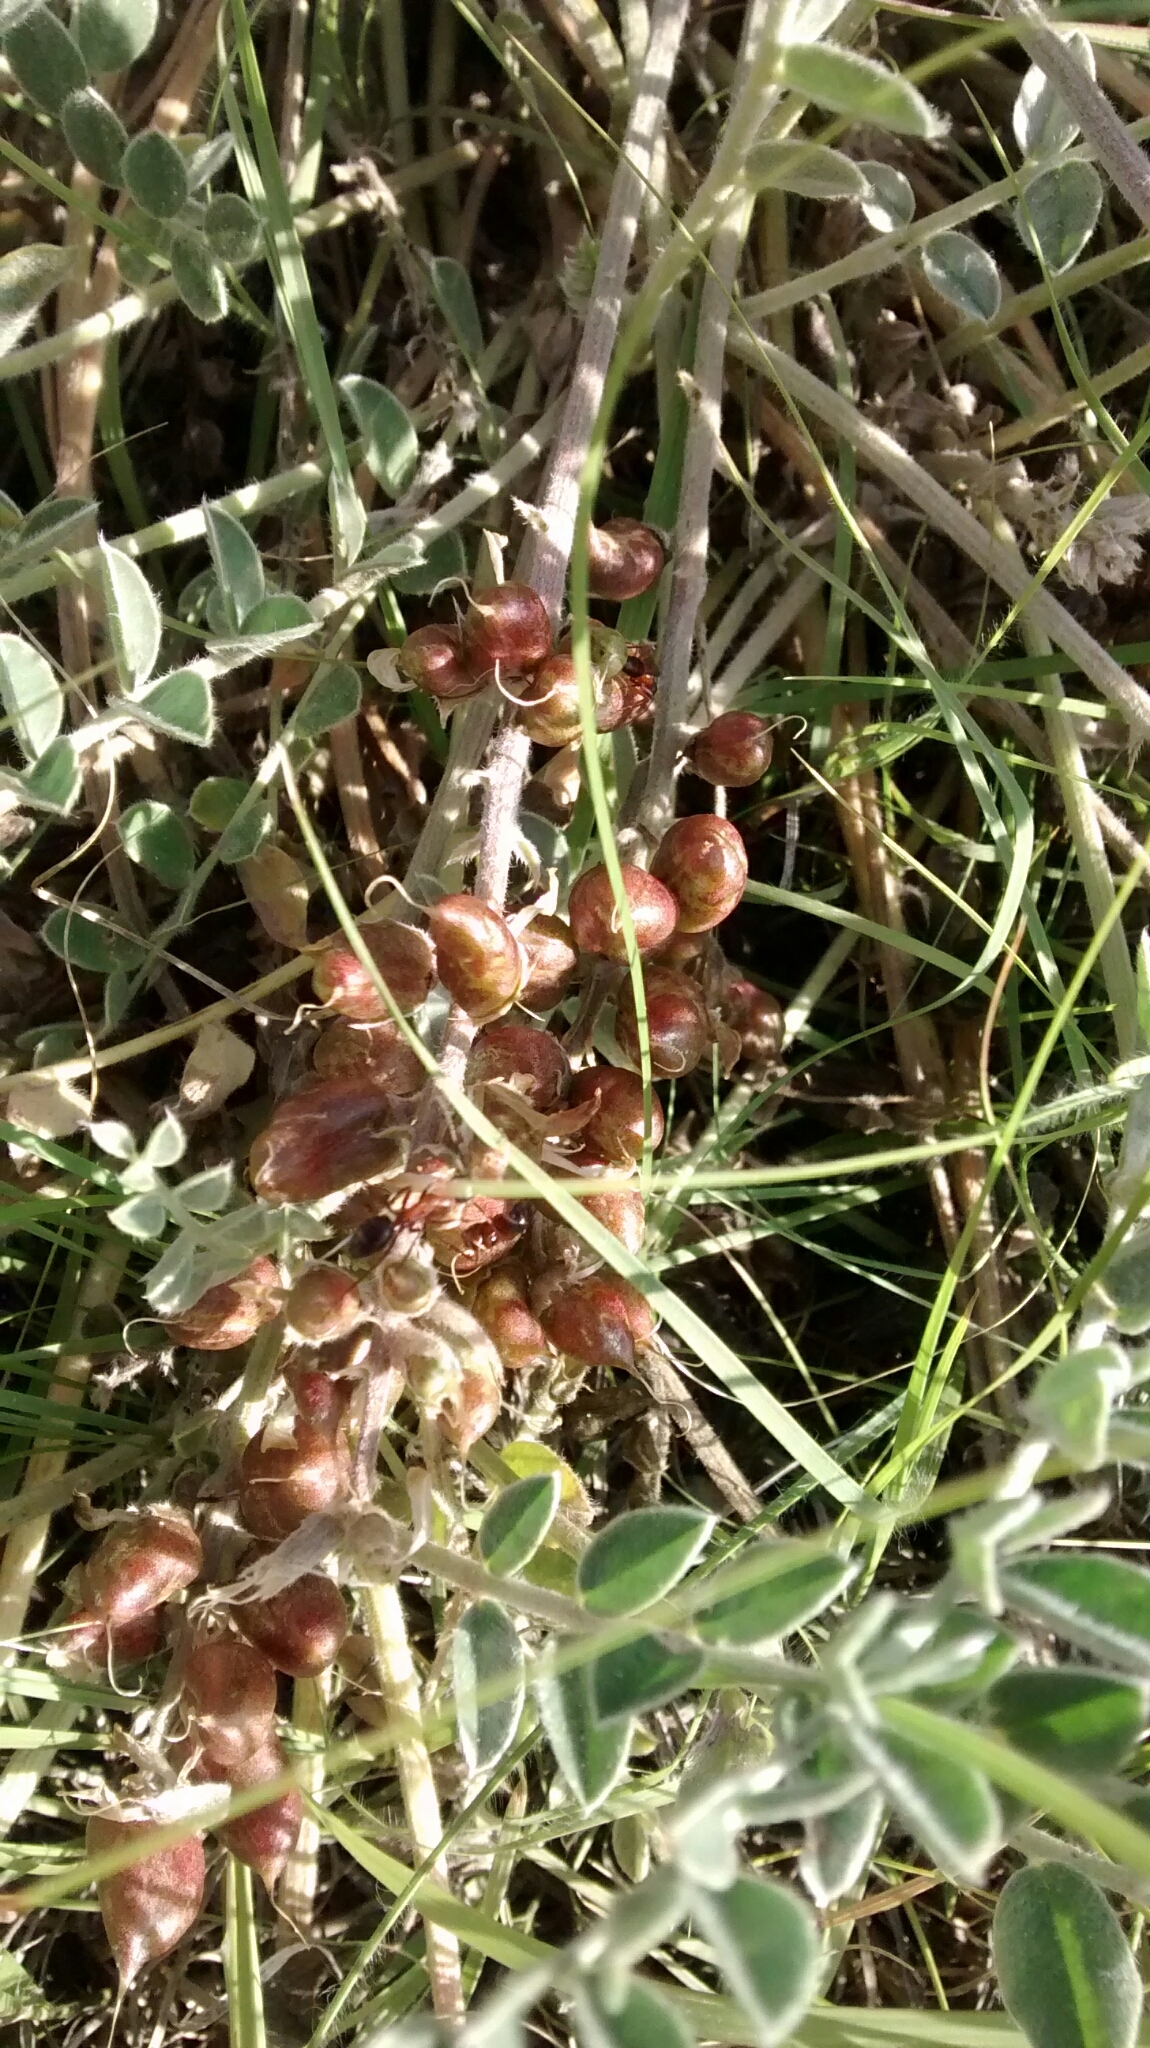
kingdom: Plantae
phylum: Tracheophyta
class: Magnoliopsida
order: Fabales
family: Fabaceae
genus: Astragalus
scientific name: Astragalus mollissimus
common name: Woolly locoweed
